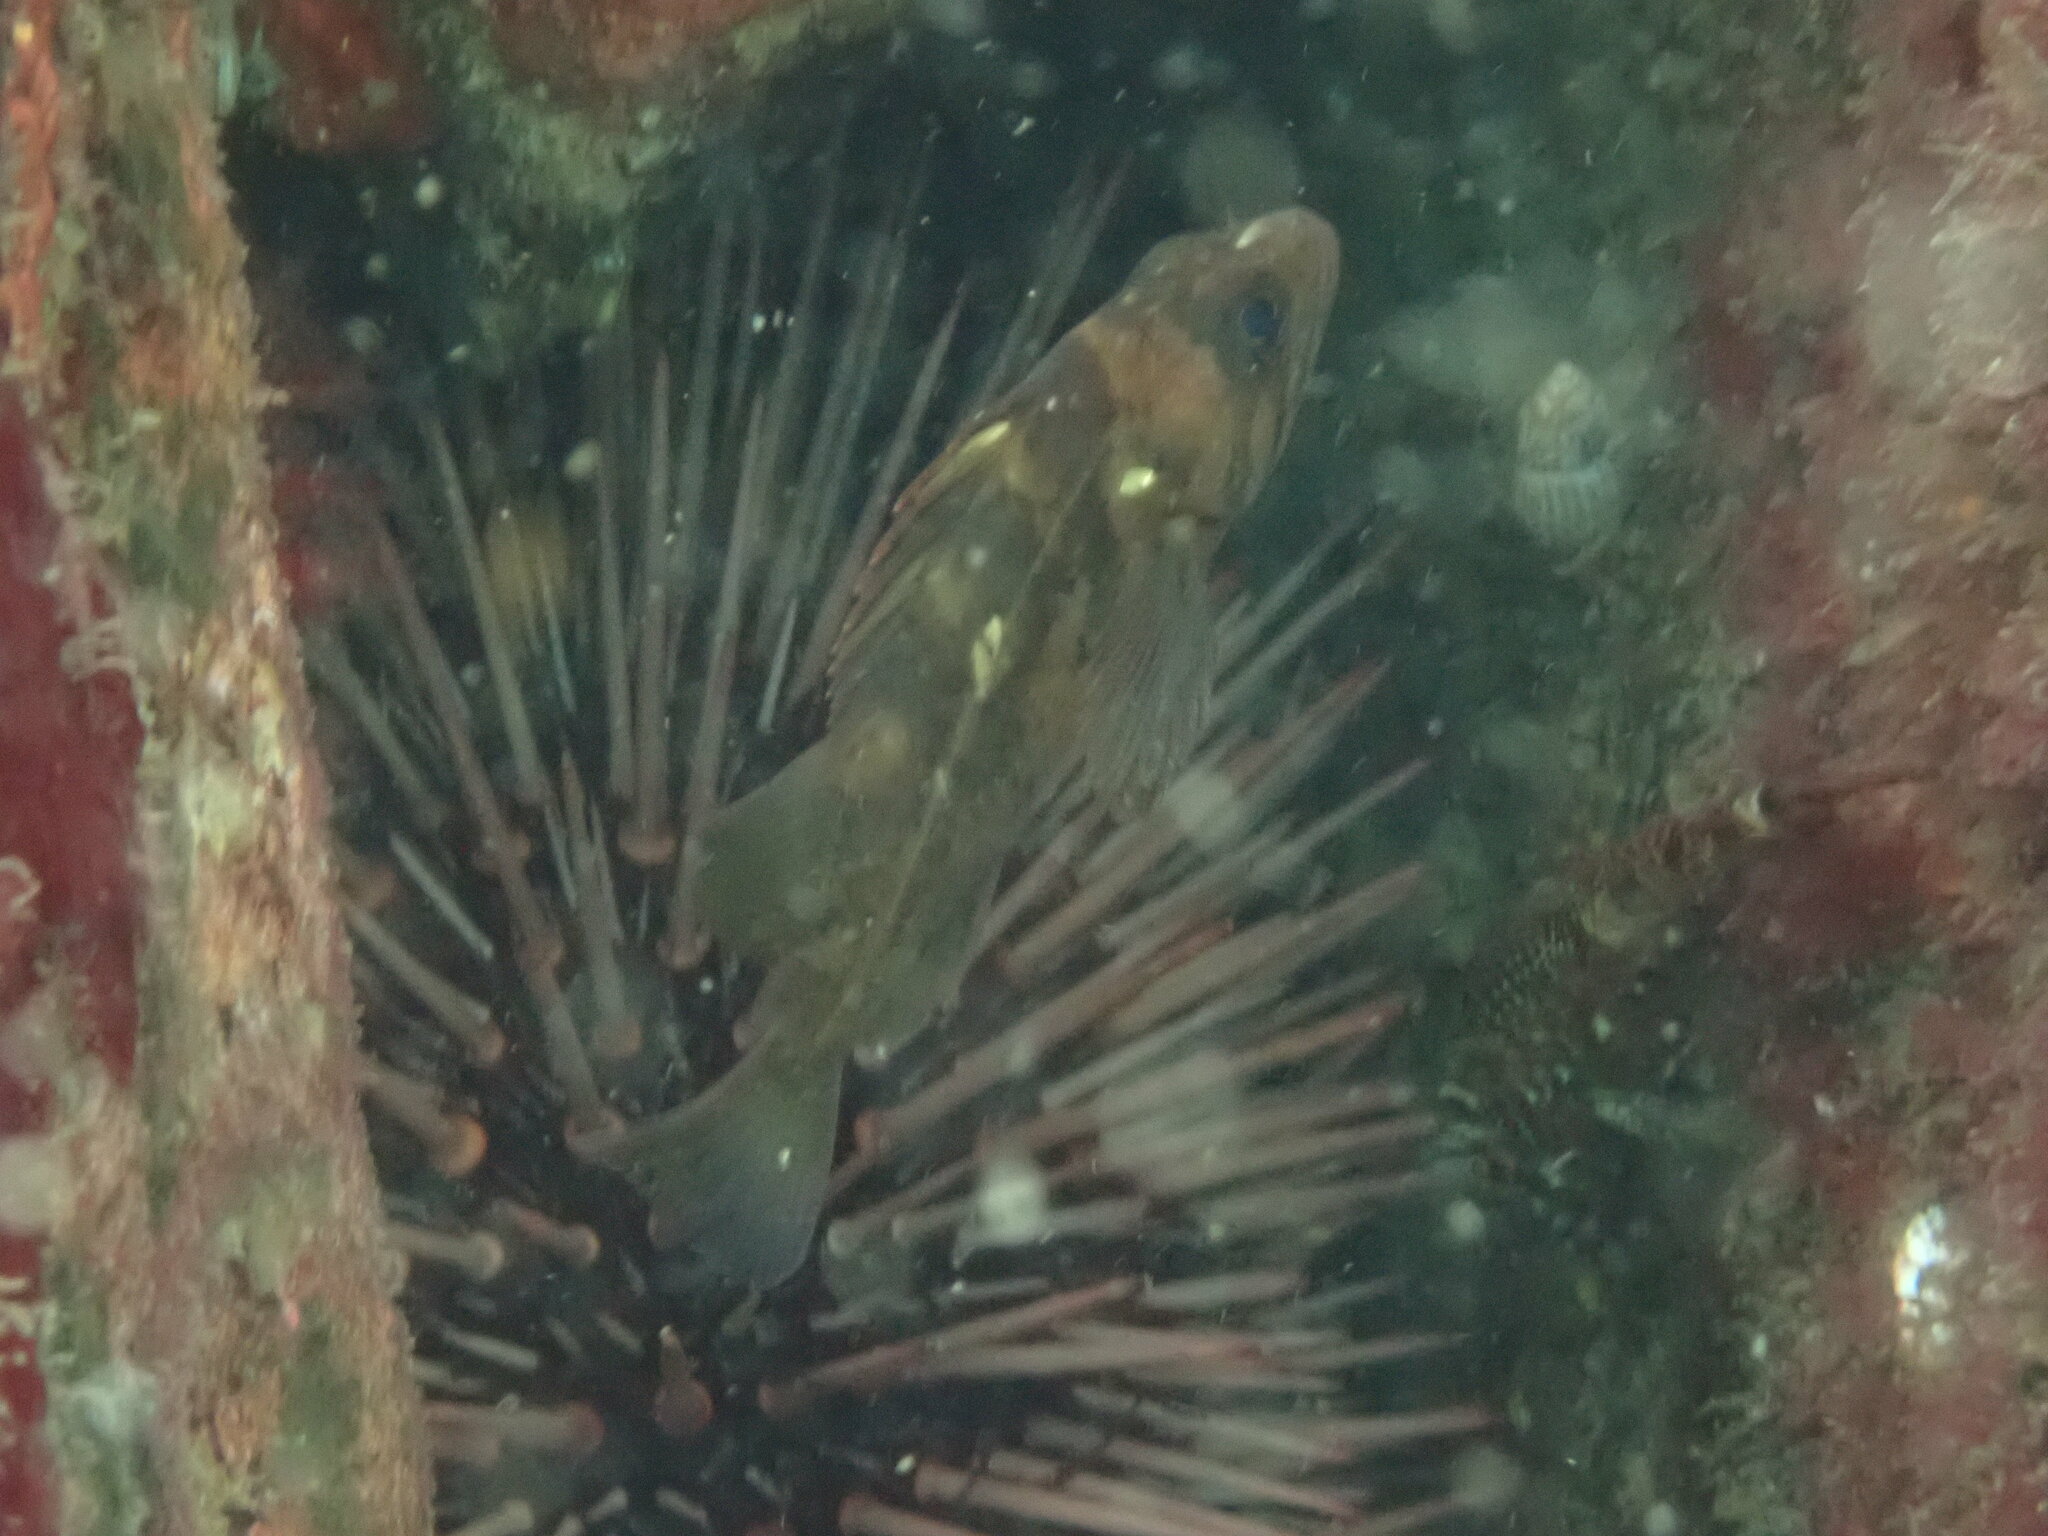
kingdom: Animalia
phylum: Chordata
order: Scorpaeniformes
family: Sebastidae
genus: Sebastes
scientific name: Sebastes caurinus
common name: Copper rockfish
